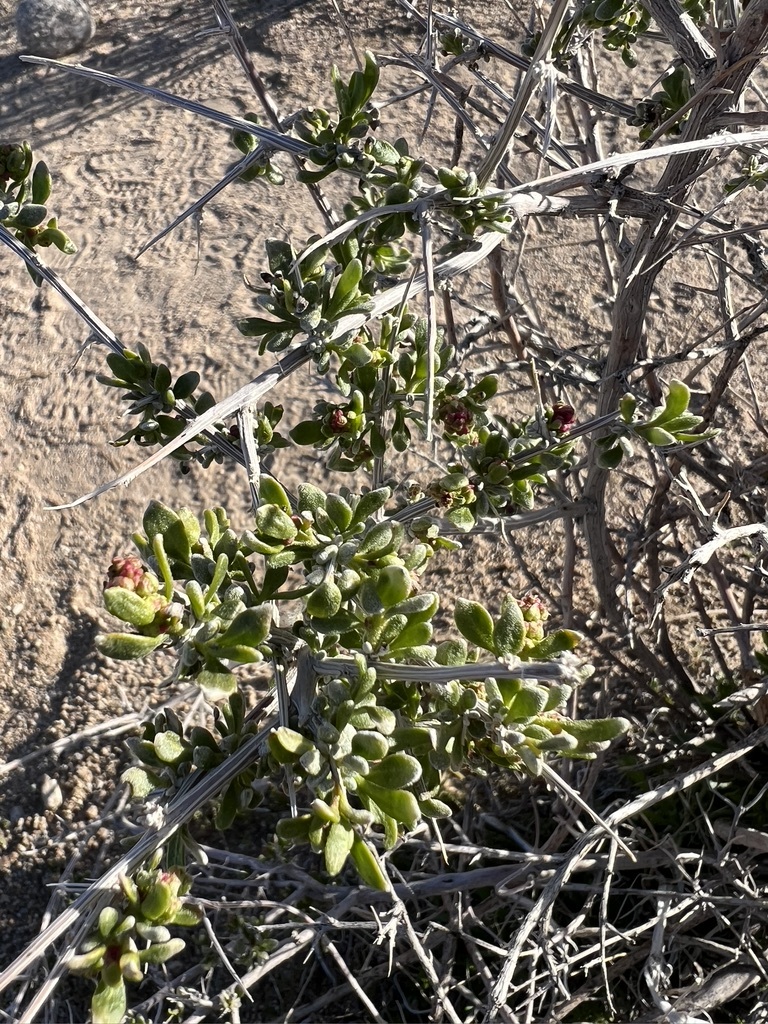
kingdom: Plantae
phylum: Tracheophyta
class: Magnoliopsida
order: Caryophyllales
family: Amaranthaceae
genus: Grayia
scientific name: Grayia spinosa
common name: Spiny hopsage
